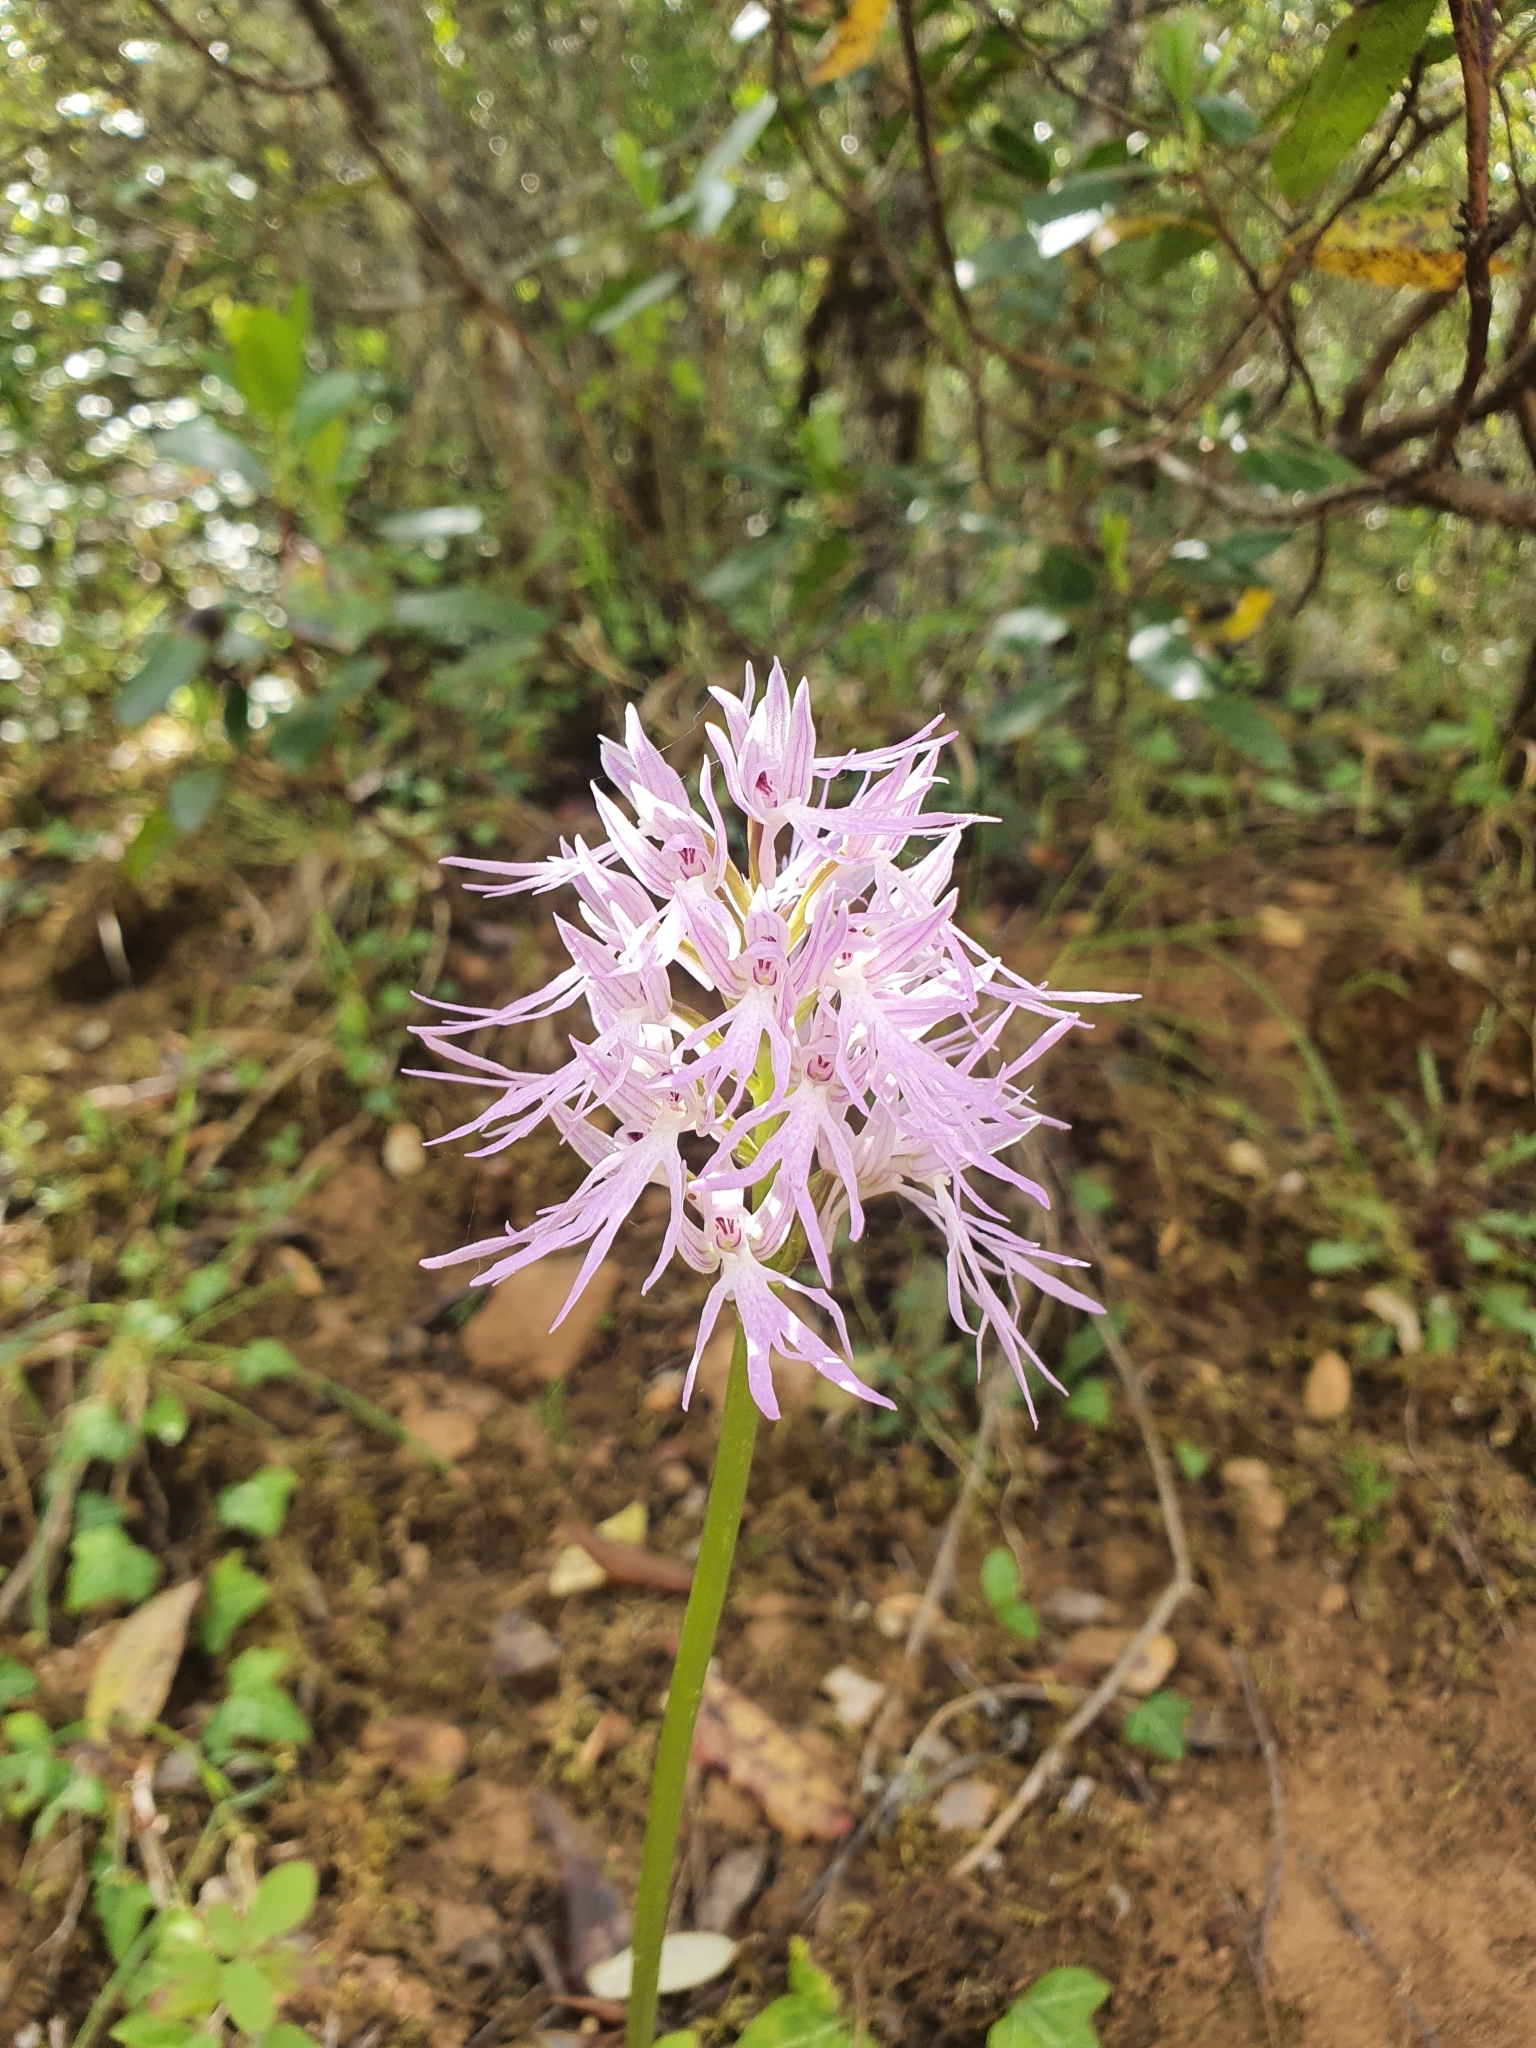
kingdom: Plantae
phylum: Tracheophyta
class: Liliopsida
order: Asparagales
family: Orchidaceae
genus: Orchis
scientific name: Orchis italica
